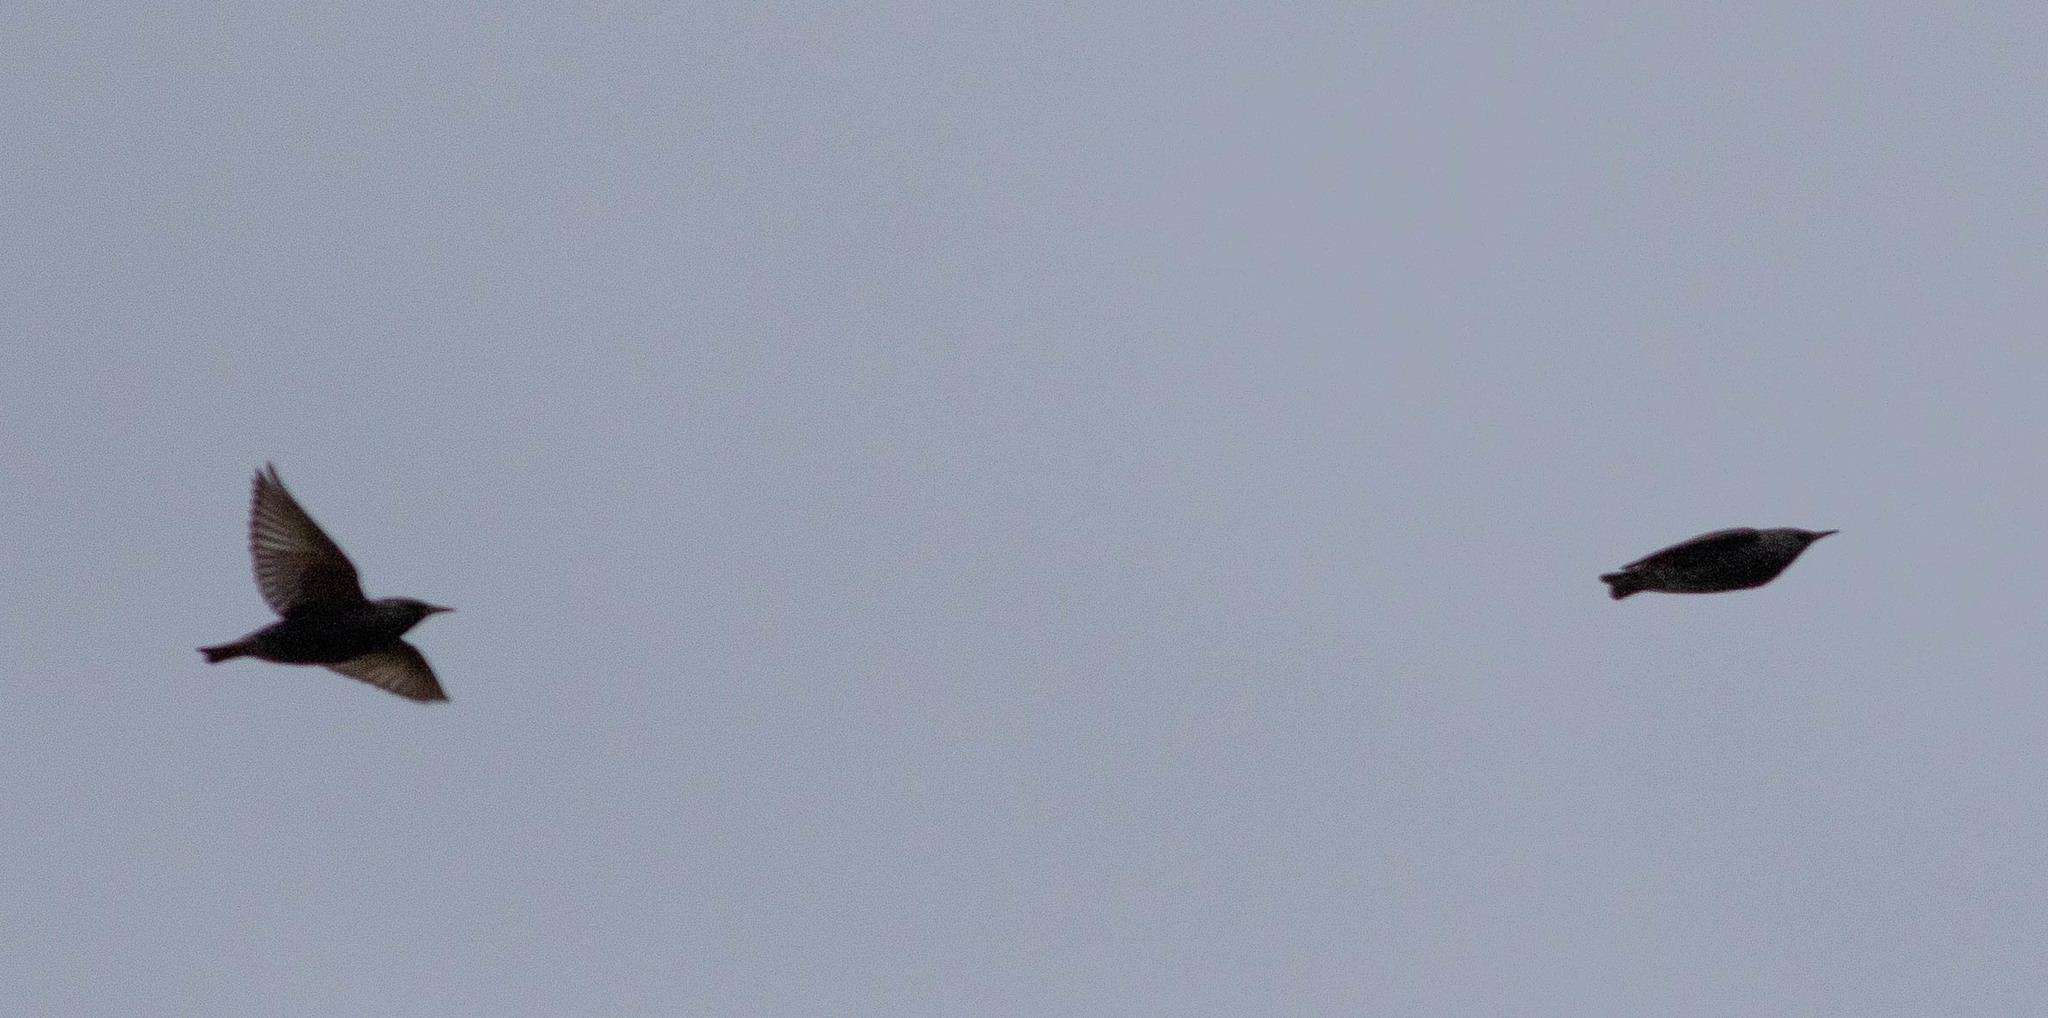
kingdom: Animalia
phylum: Chordata
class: Aves
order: Passeriformes
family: Sturnidae
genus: Sturnus
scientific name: Sturnus vulgaris
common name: Common starling
